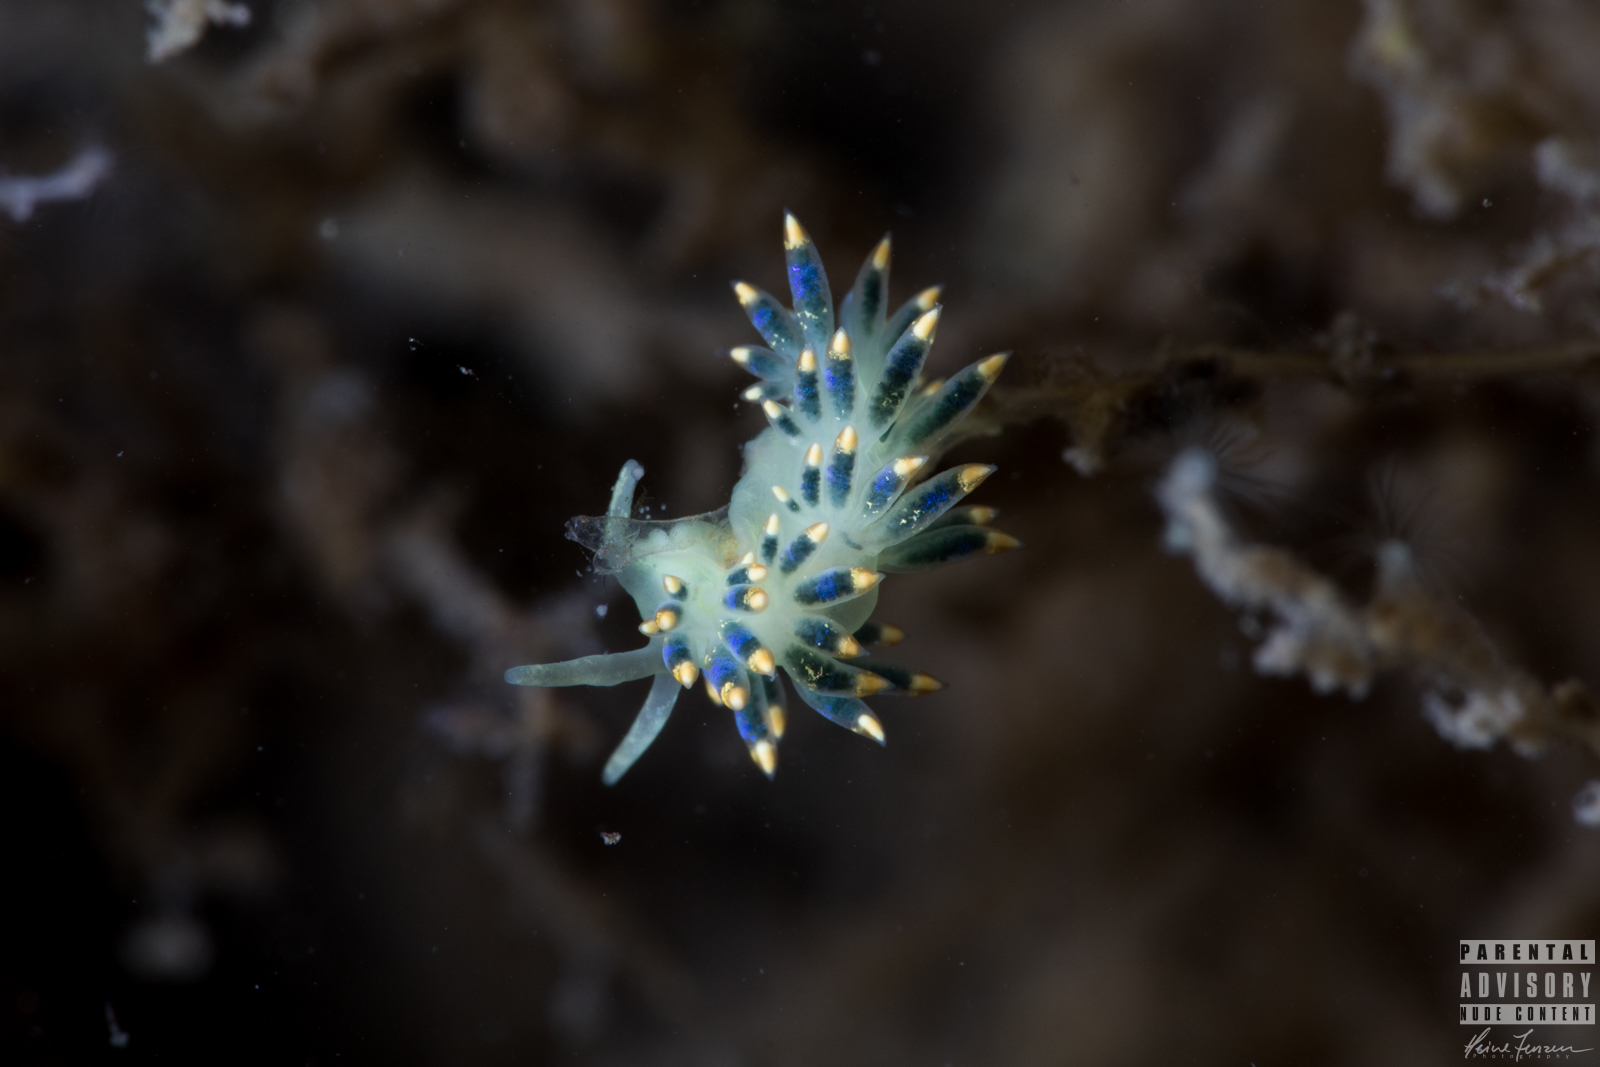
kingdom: Animalia
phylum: Mollusca
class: Gastropoda
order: Nudibranchia
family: Trinchesiidae
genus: Trinchesia
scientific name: Trinchesia cuanensis
